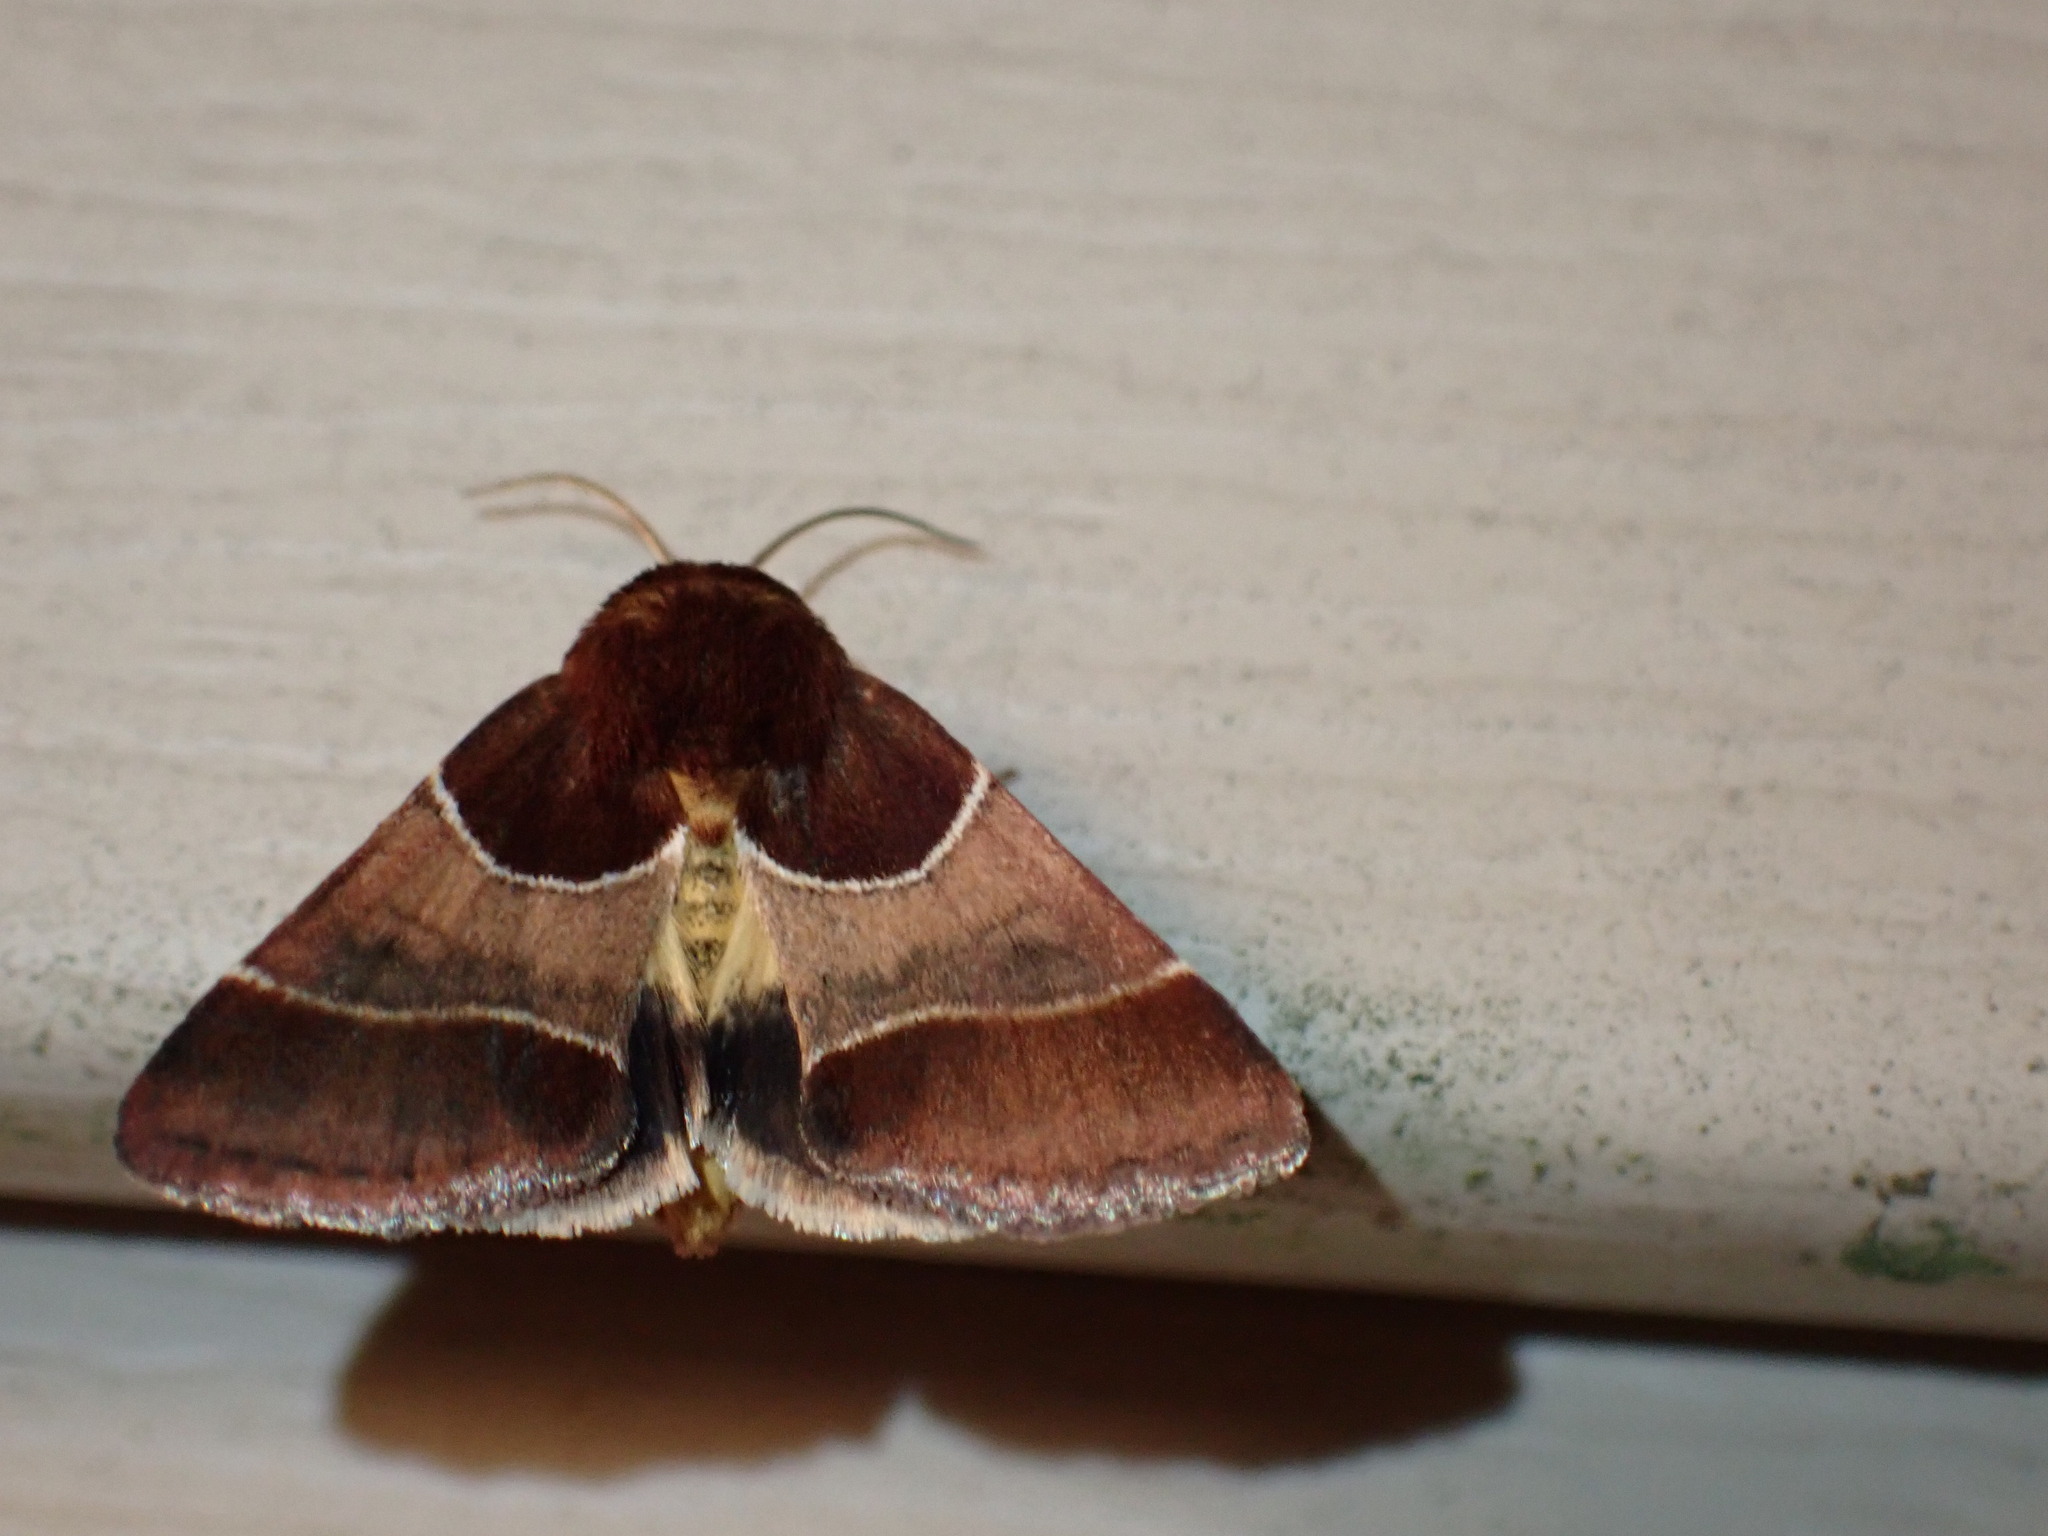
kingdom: Animalia
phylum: Arthropoda
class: Insecta
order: Lepidoptera
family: Noctuidae
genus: Schinia
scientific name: Schinia arcigera
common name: Arcigera flower moth
